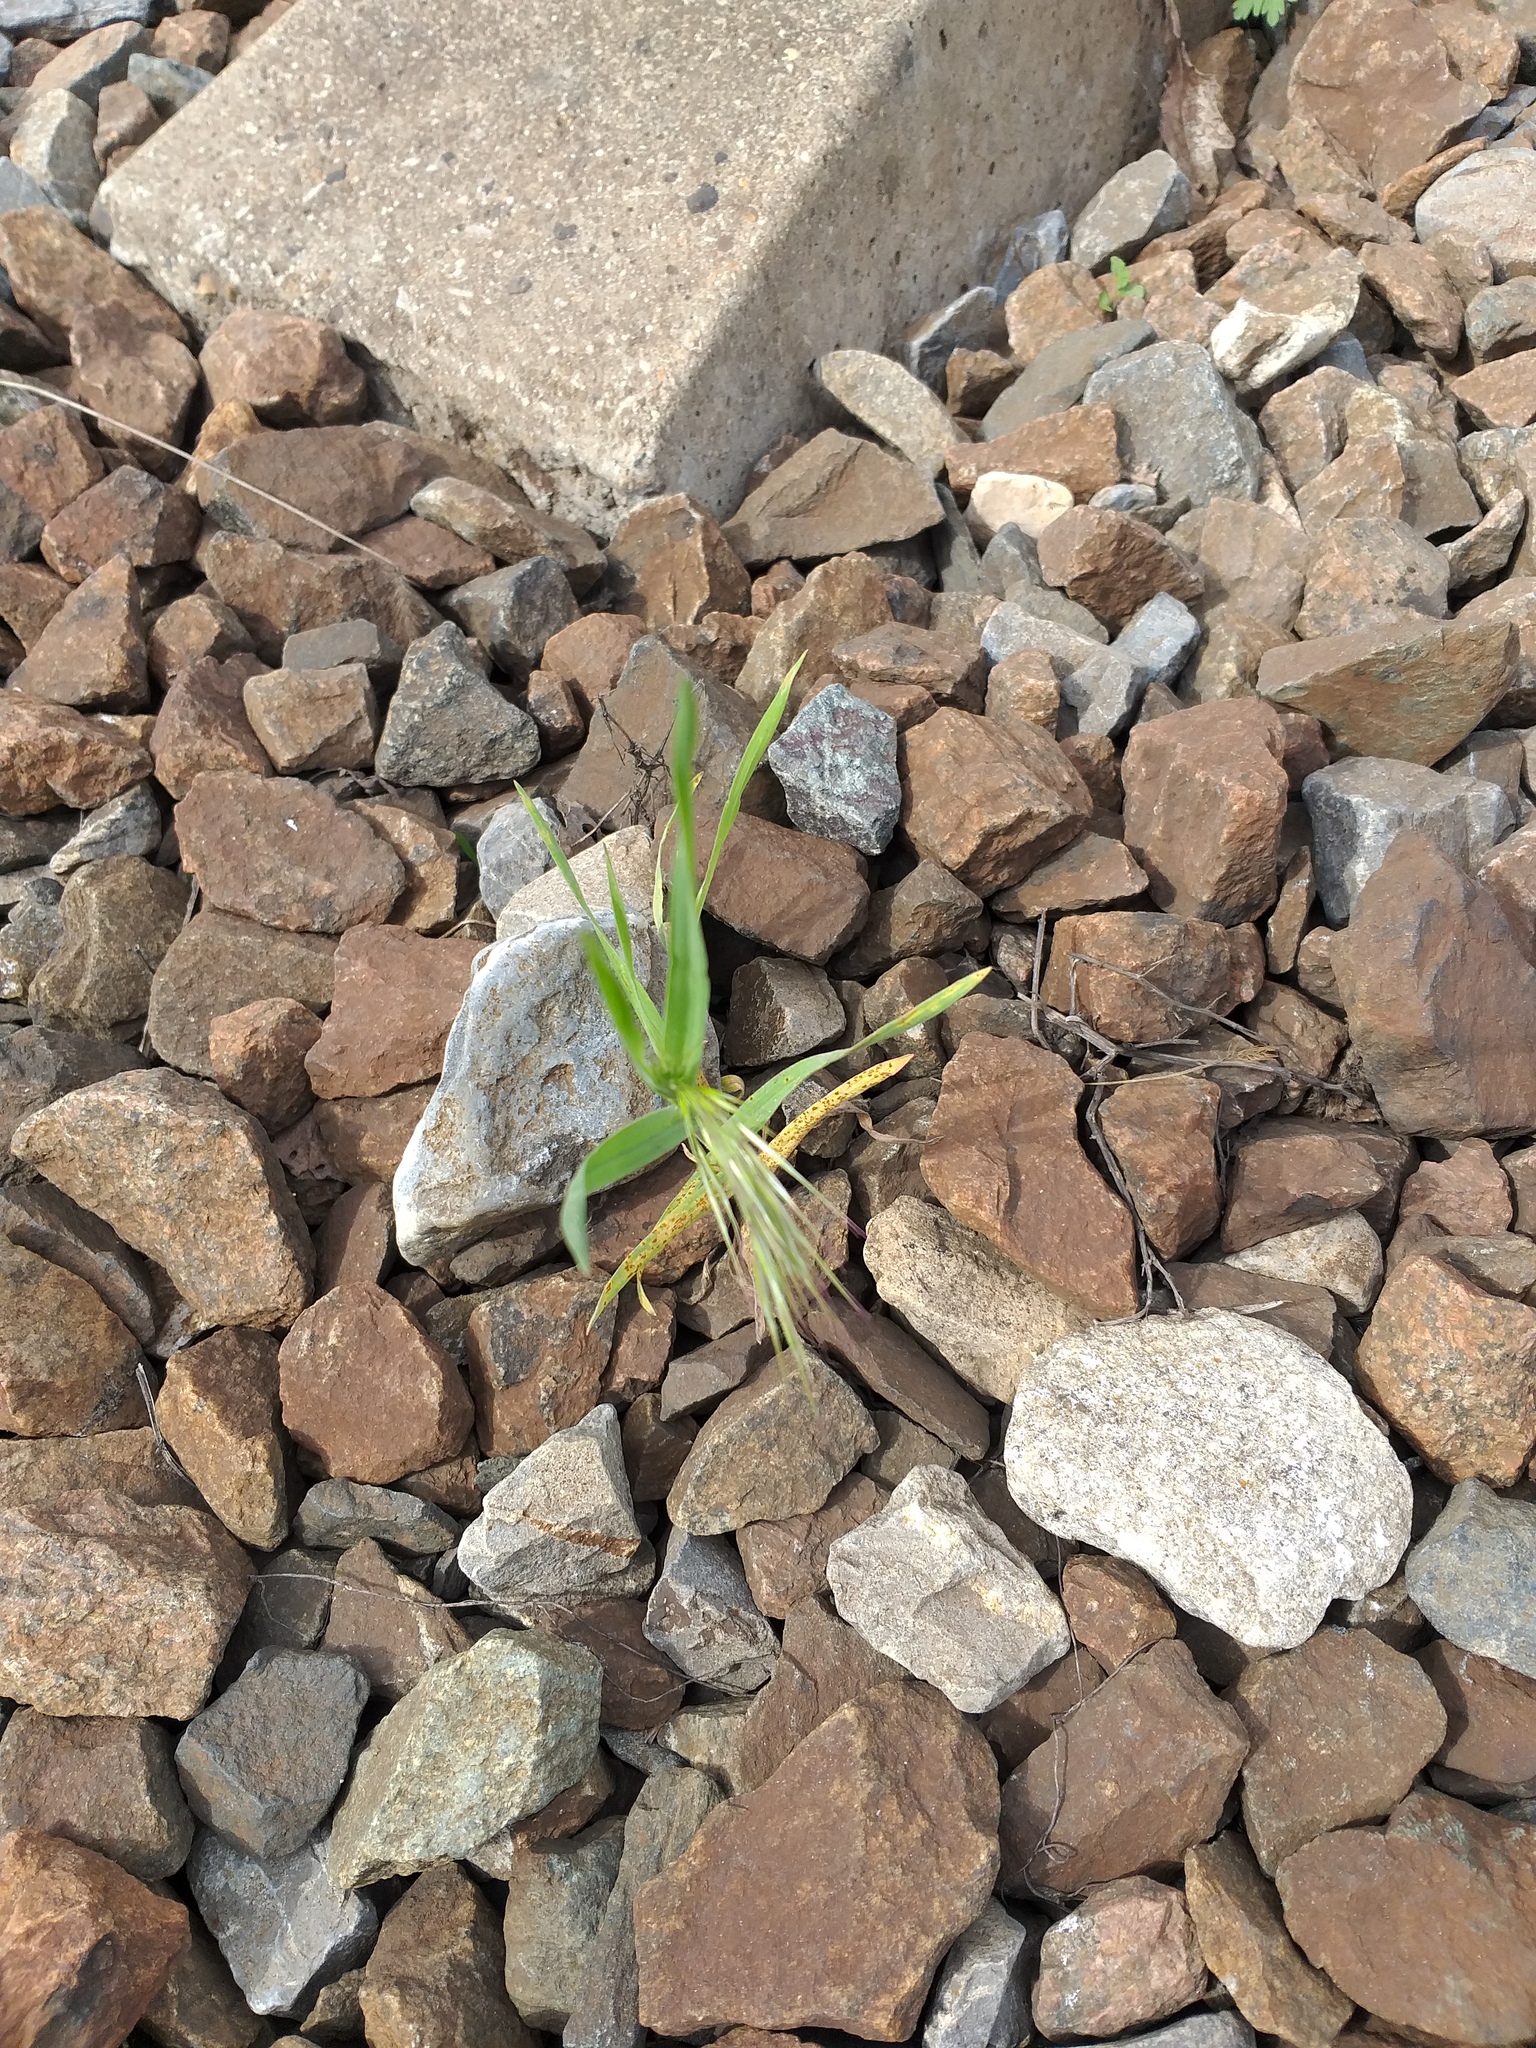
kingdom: Plantae
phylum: Tracheophyta
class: Liliopsida
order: Poales
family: Poaceae
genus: Bromus
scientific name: Bromus tectorum
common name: Cheatgrass
